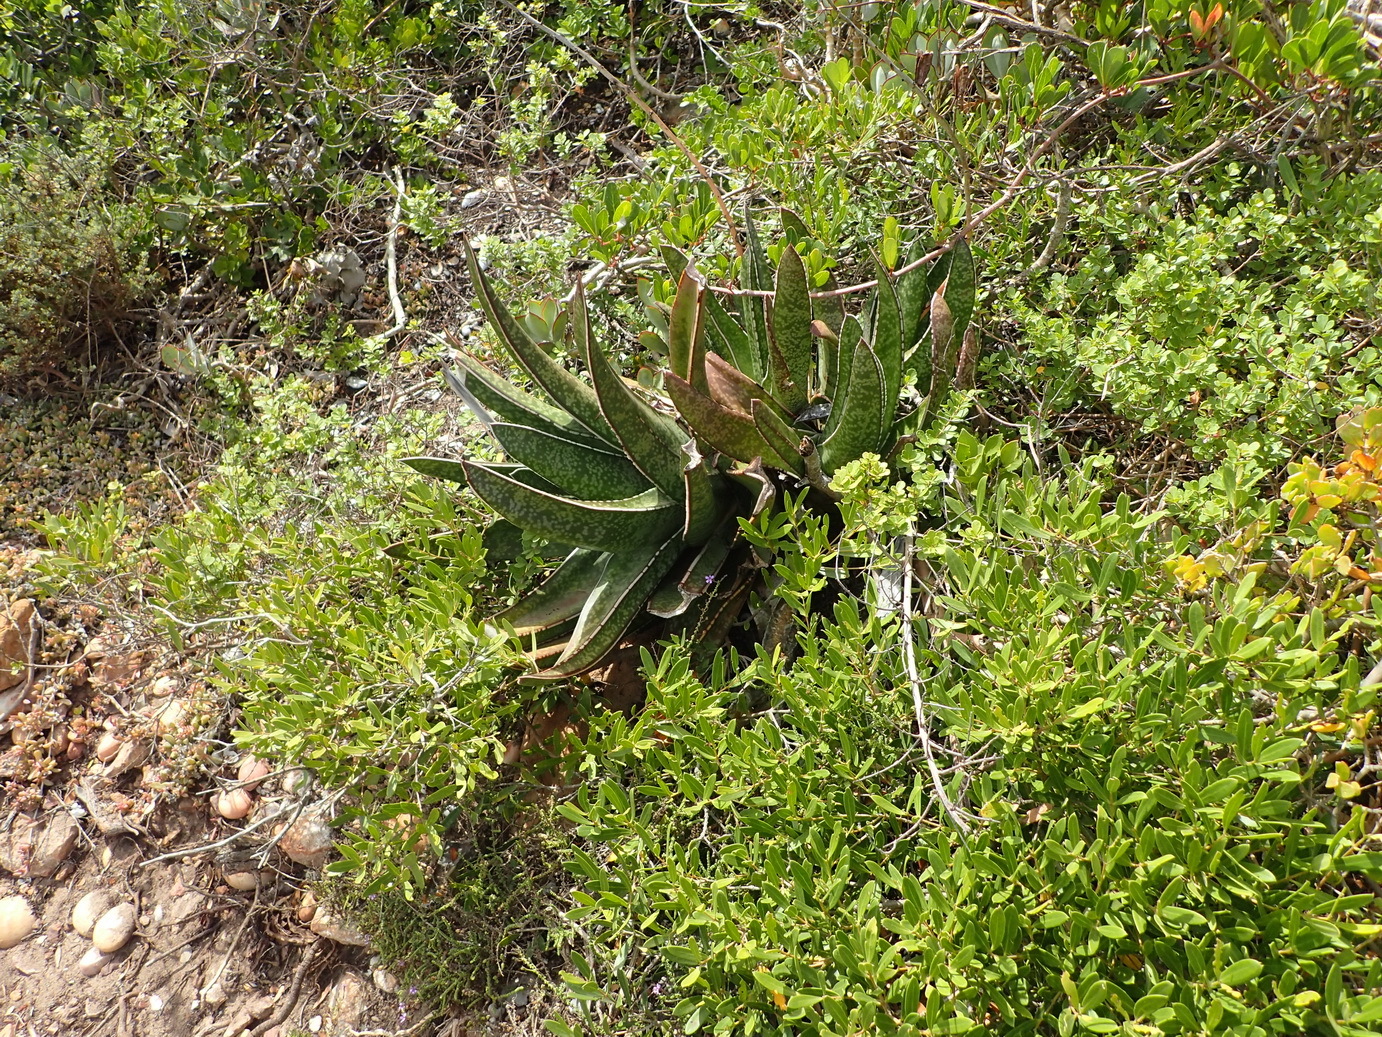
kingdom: Plantae
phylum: Tracheophyta
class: Liliopsida
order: Asparagales
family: Asphodelaceae
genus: Gasteria
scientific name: Gasteria acinacifolia
